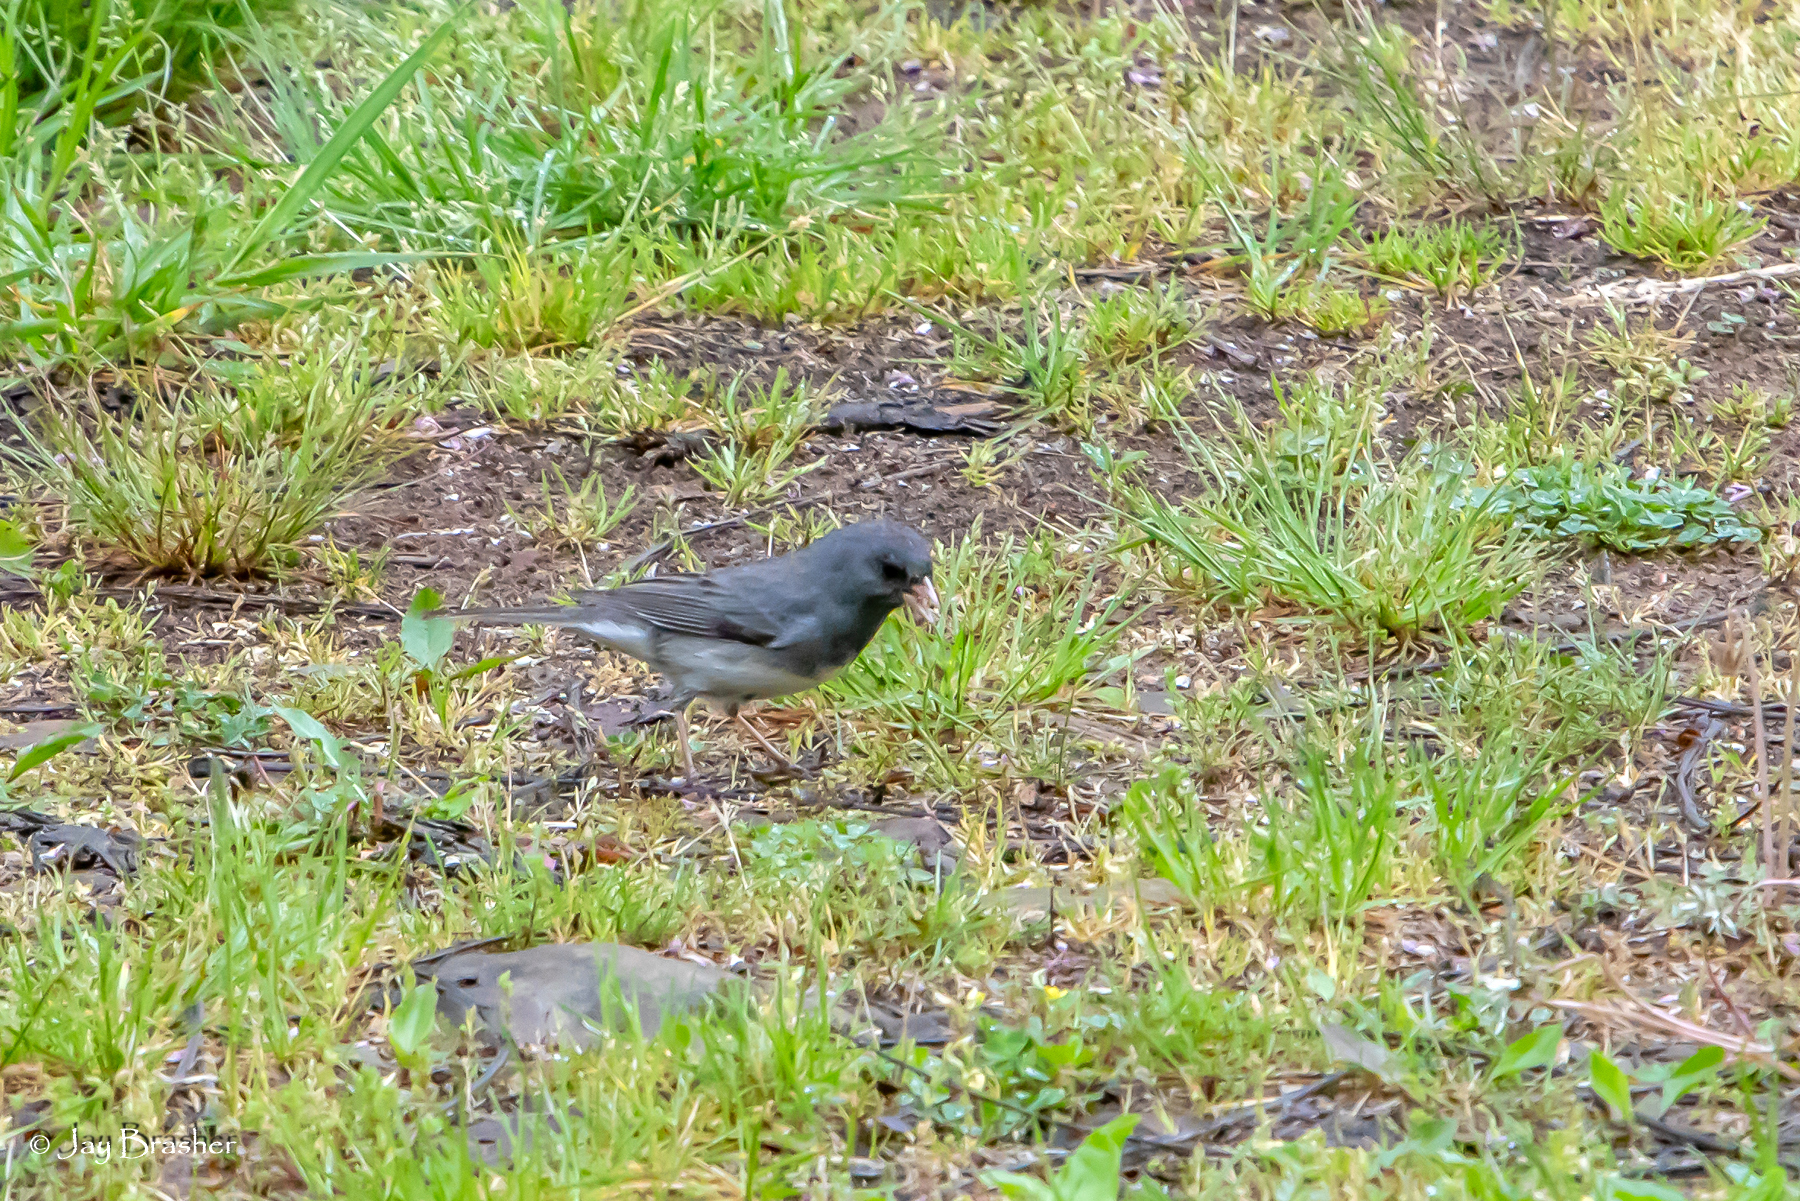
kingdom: Animalia
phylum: Chordata
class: Aves
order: Passeriformes
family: Passerellidae
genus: Junco
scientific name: Junco hyemalis
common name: Dark-eyed junco
